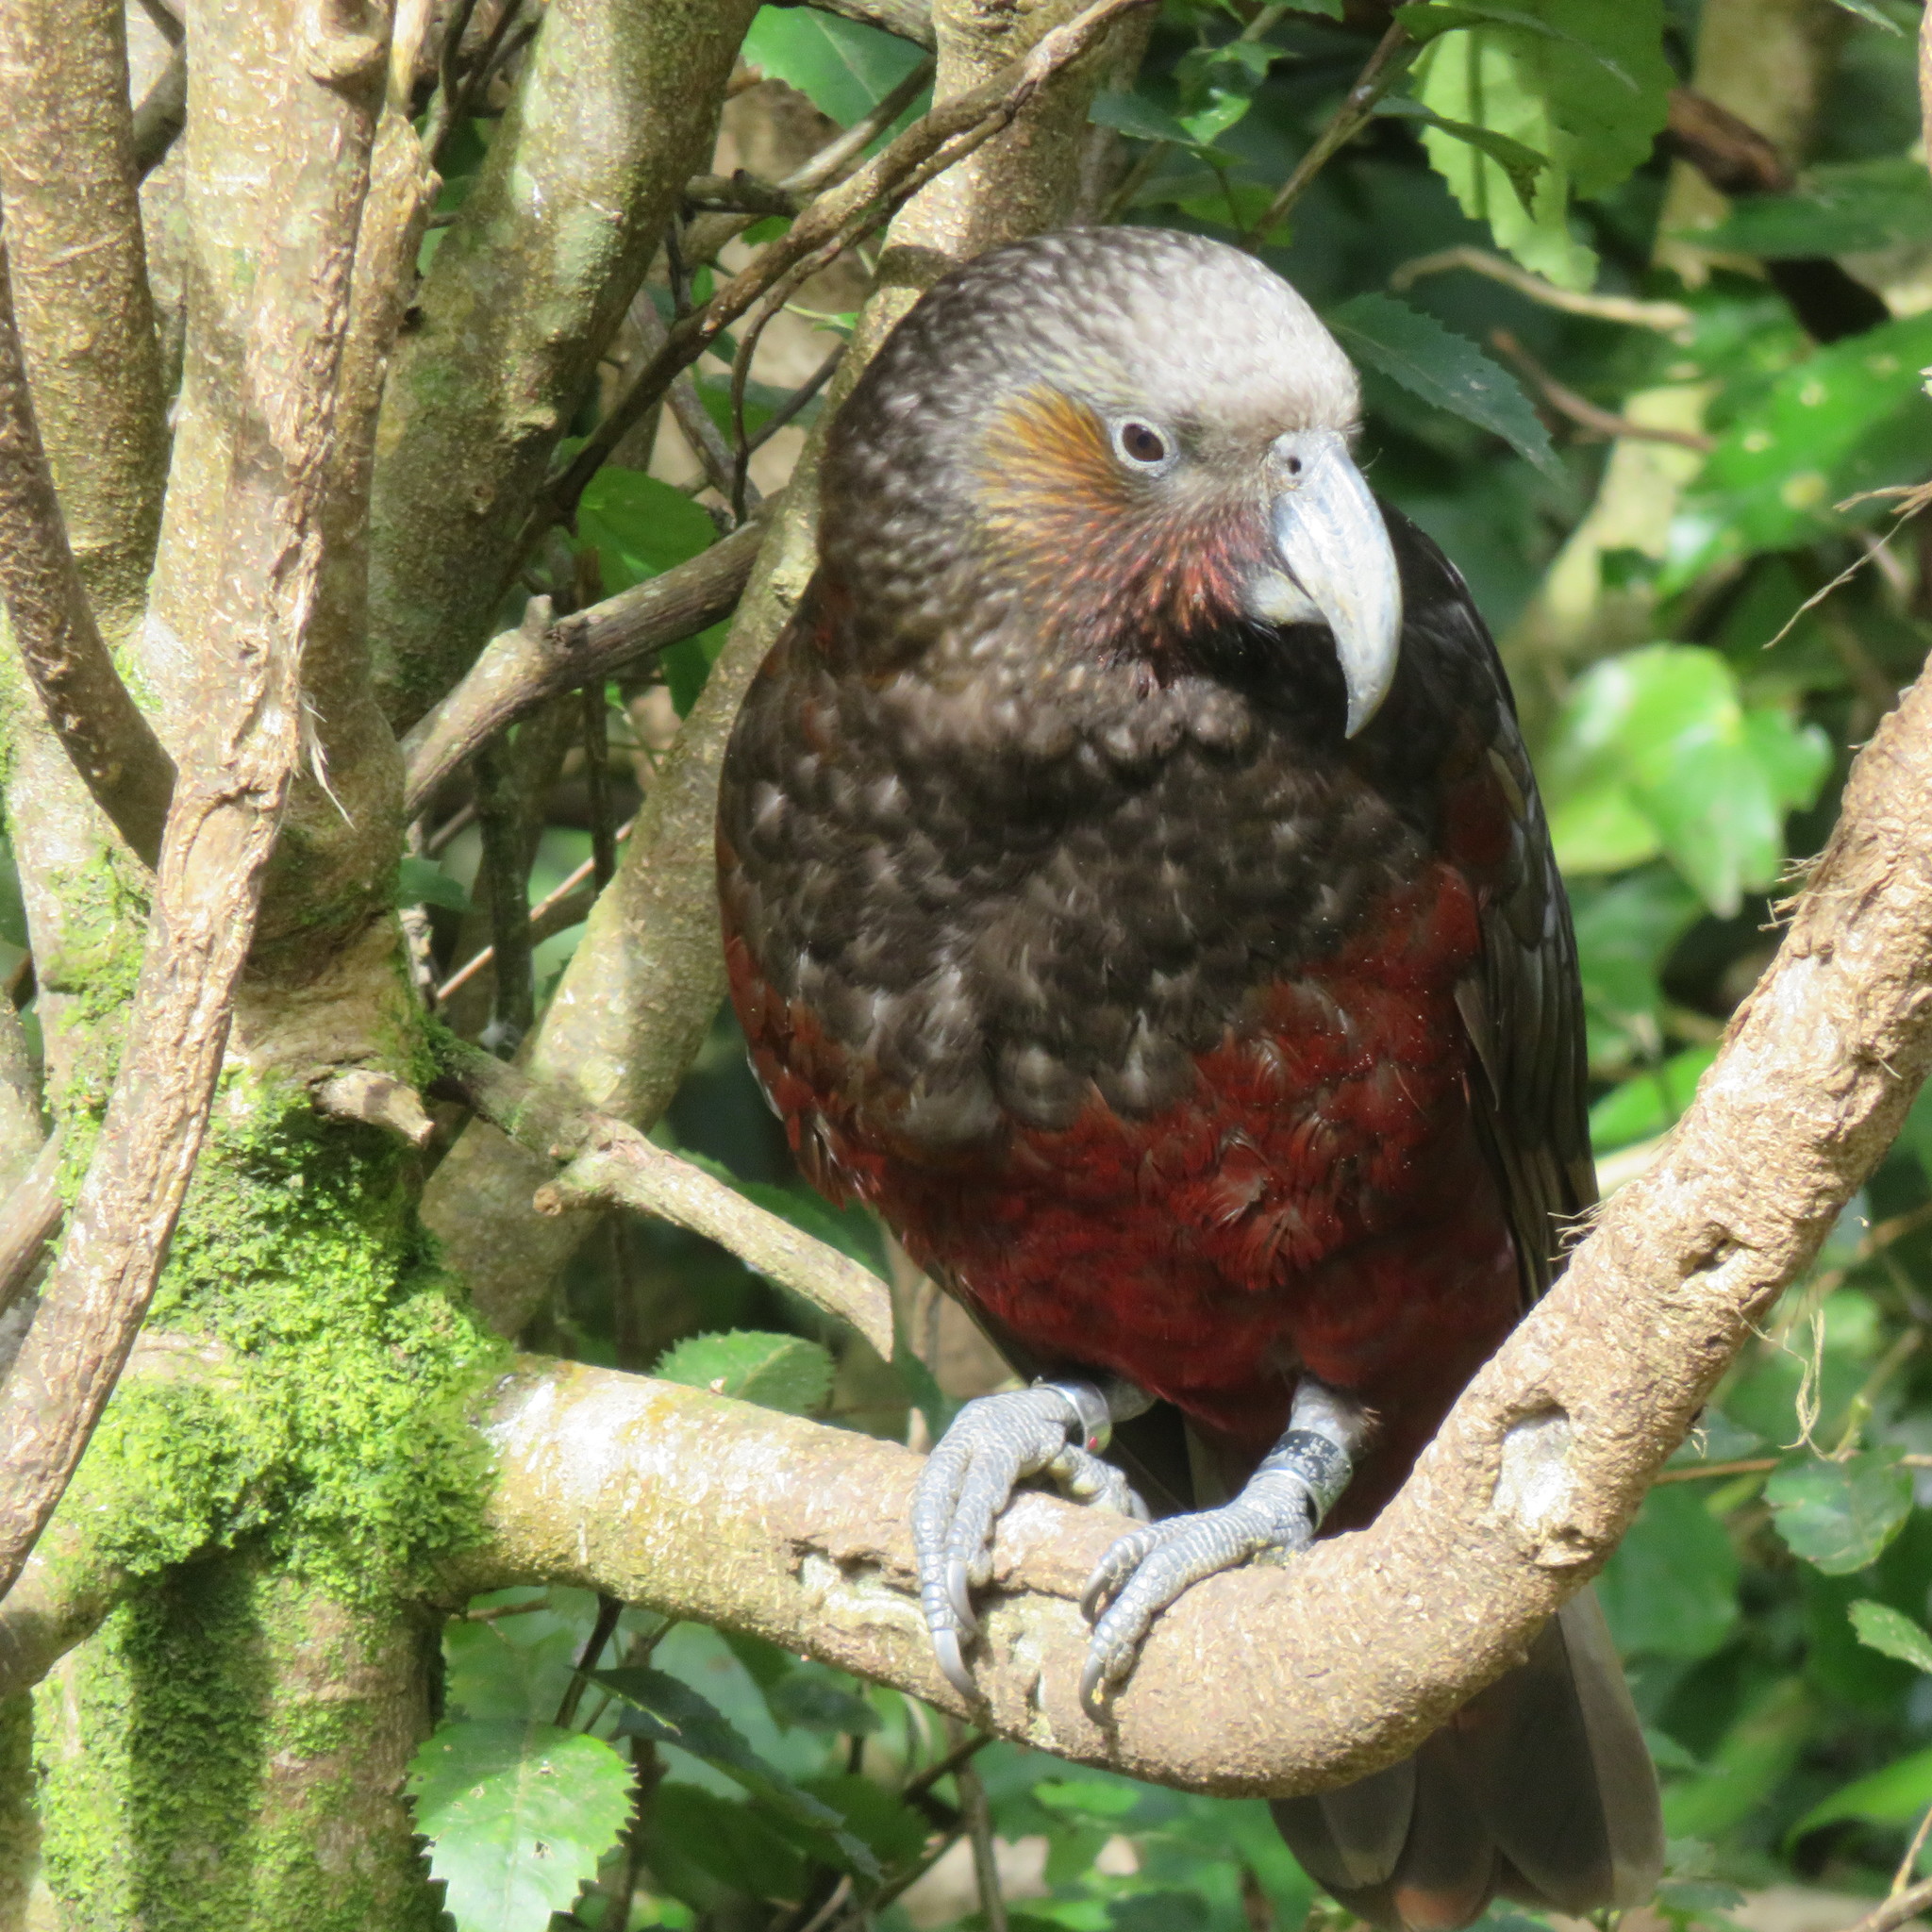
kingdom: Animalia
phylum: Chordata
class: Aves
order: Psittaciformes
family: Psittacidae
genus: Nestor
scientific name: Nestor meridionalis
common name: New zealand kaka
